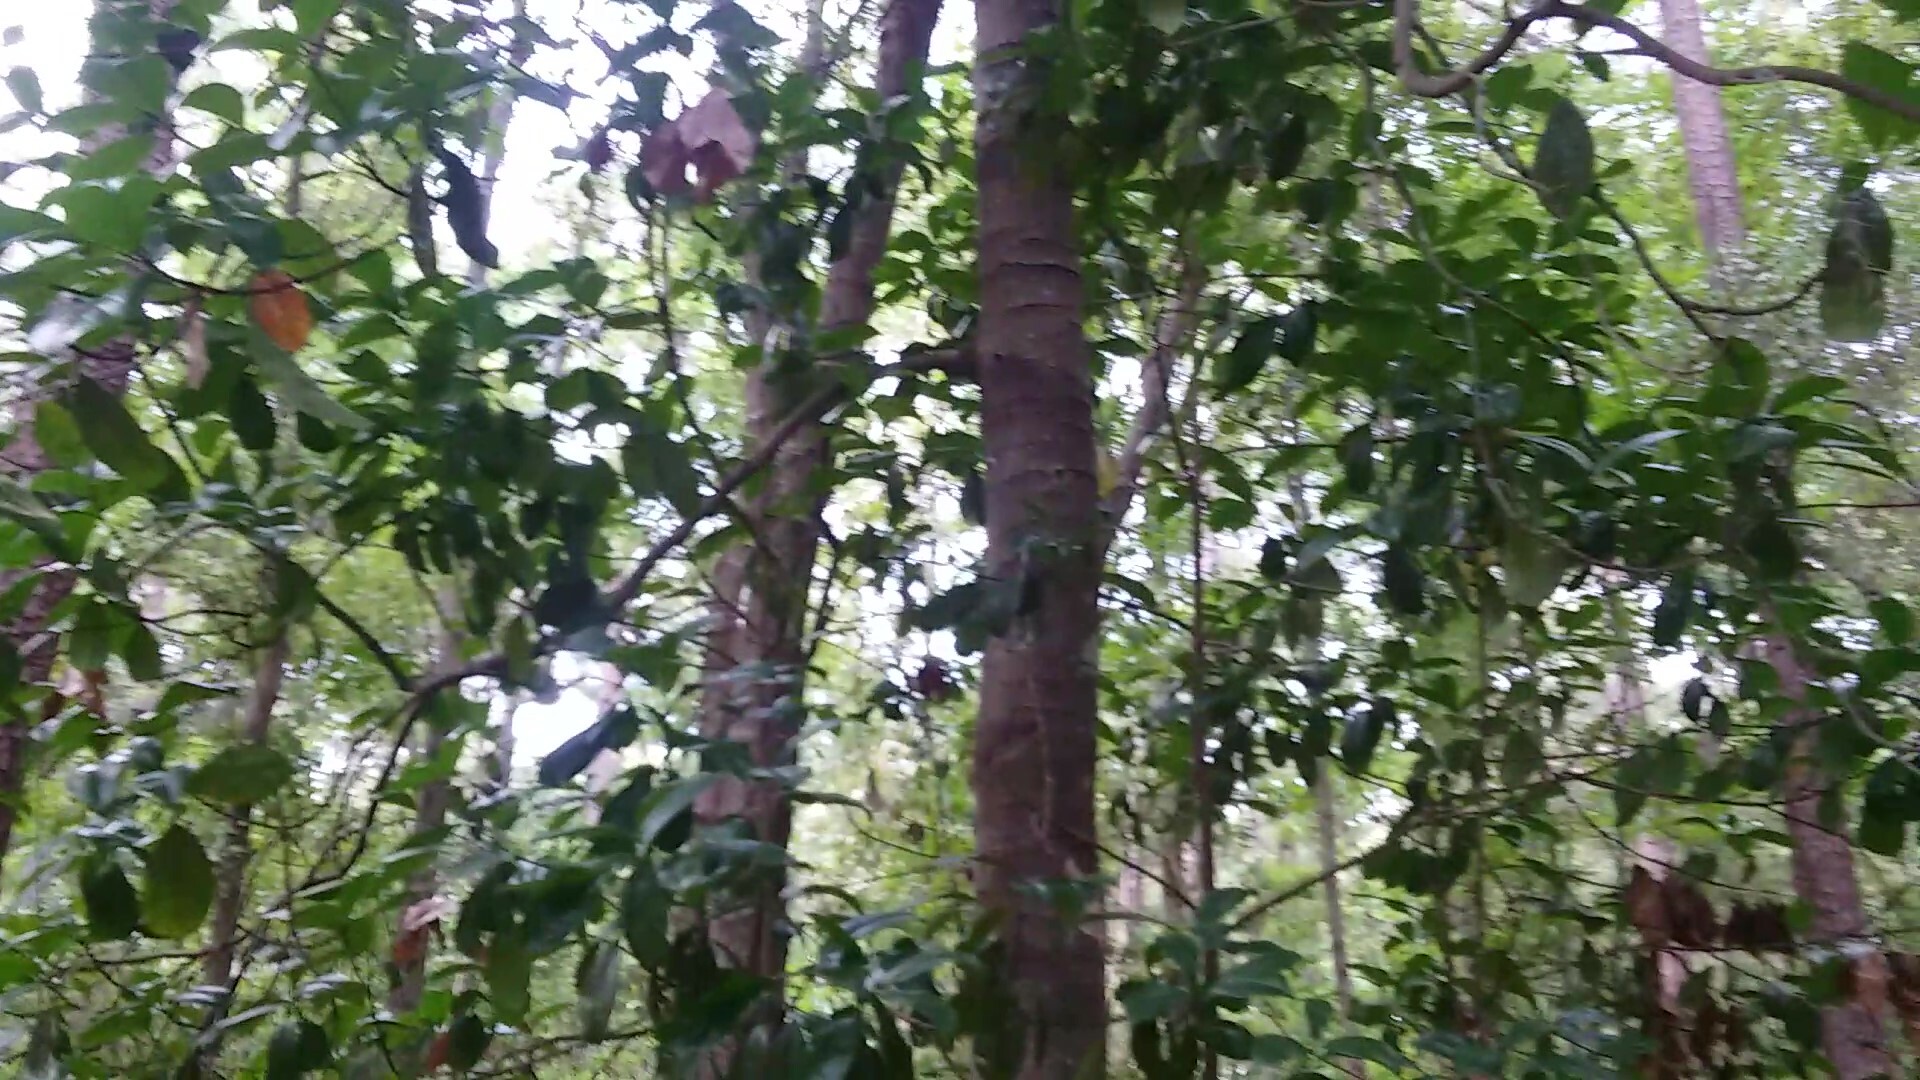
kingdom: Plantae
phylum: Tracheophyta
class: Magnoliopsida
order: Magnoliales
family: Magnoliaceae
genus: Magnolia
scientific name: Magnolia grandiflora
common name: Southern magnolia
